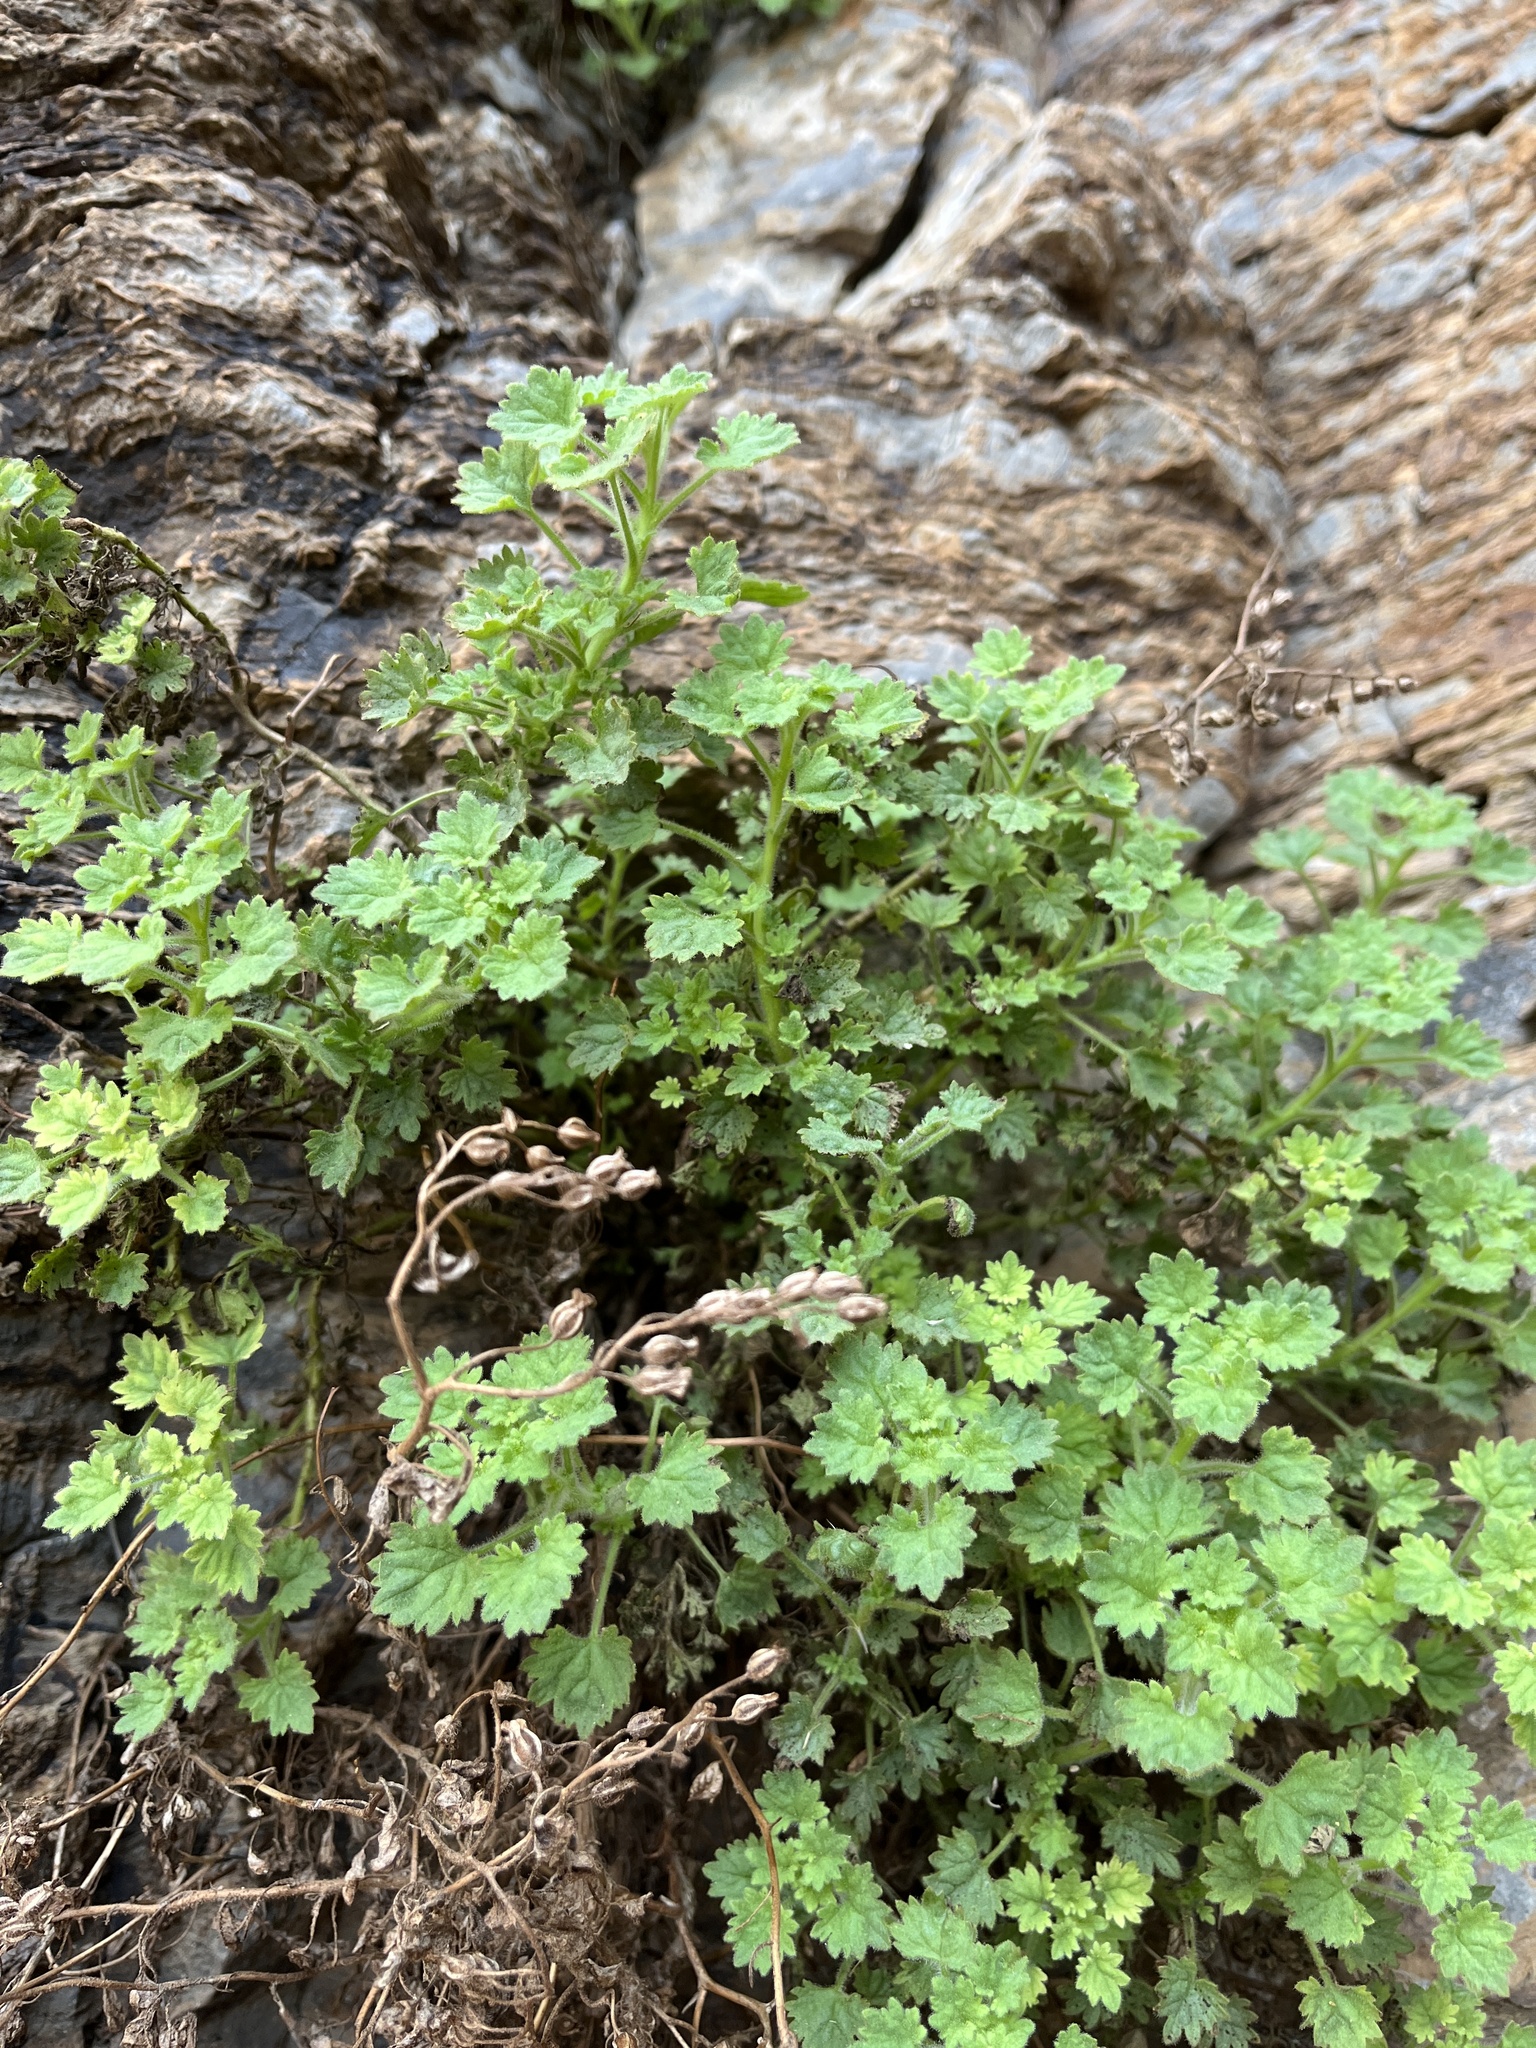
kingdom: Plantae
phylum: Tracheophyta
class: Magnoliopsida
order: Boraginales
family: Hydrophyllaceae
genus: Phacelia
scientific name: Phacelia perityloides
